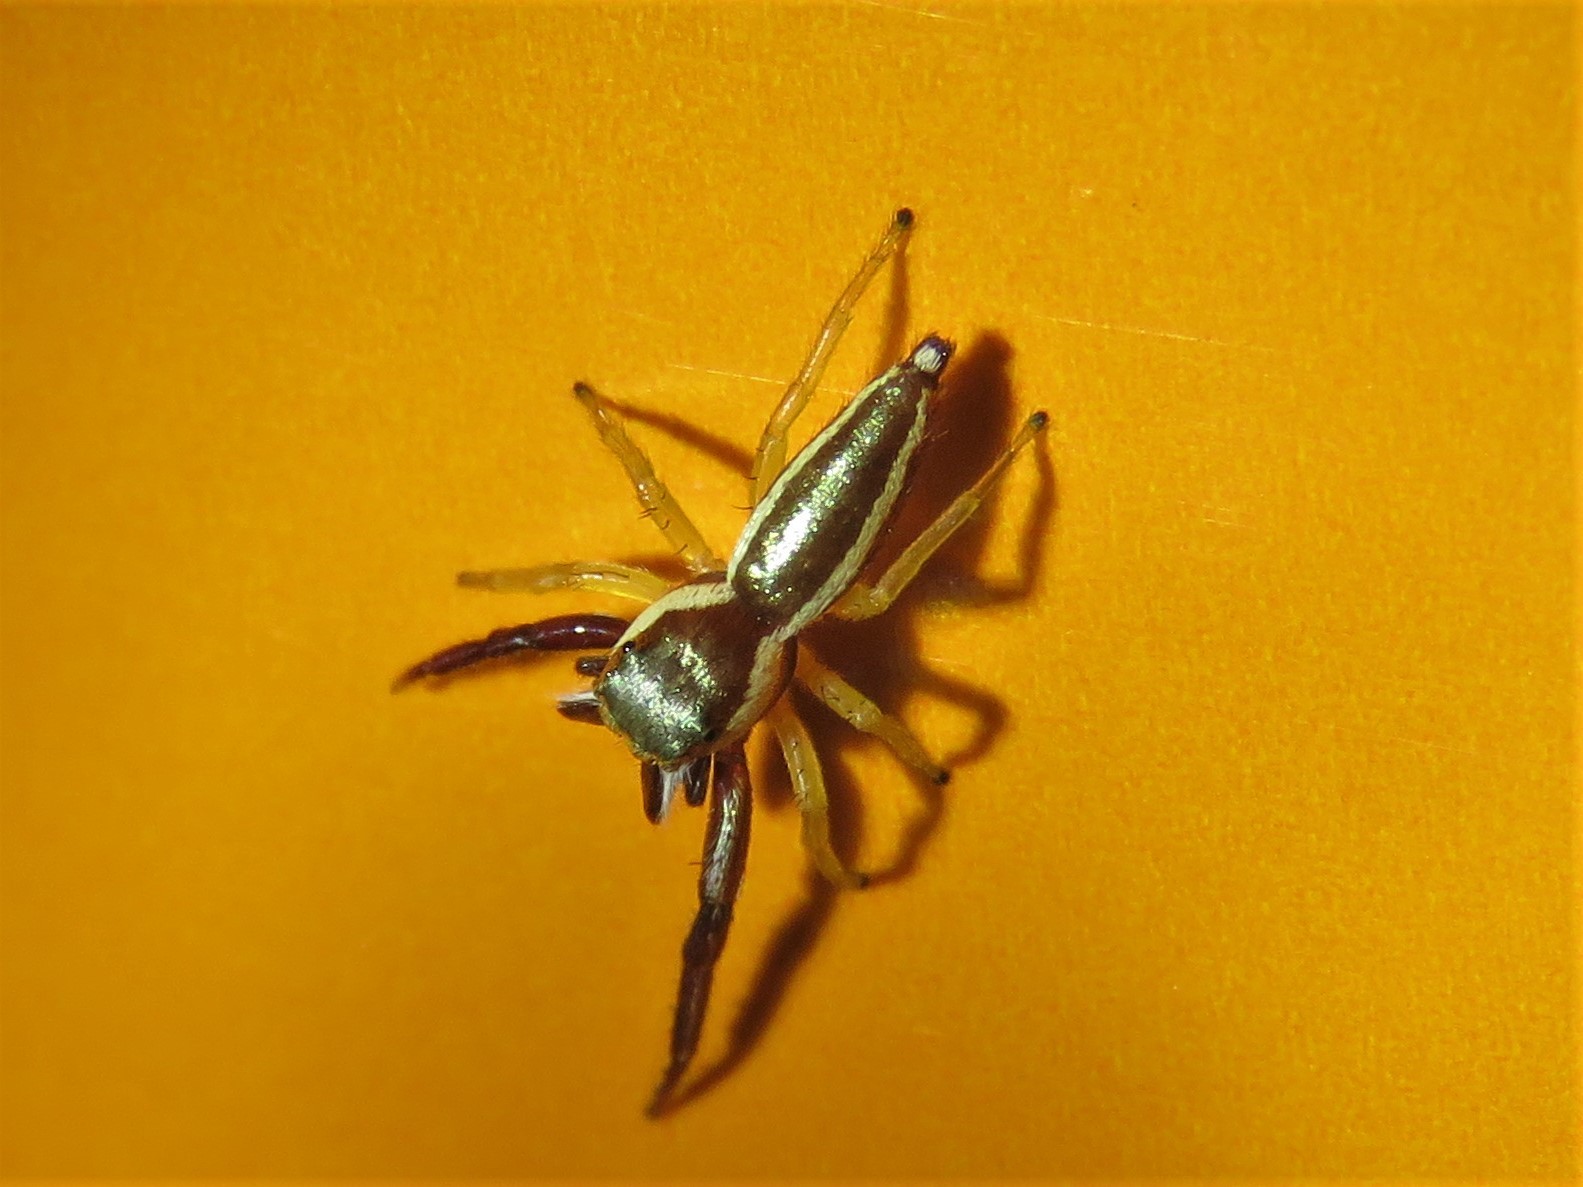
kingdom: Animalia
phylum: Arthropoda
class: Arachnida
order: Araneae
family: Salticidae
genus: Hentzia
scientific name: Hentzia palmarum
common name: Common hentz jumping spider
